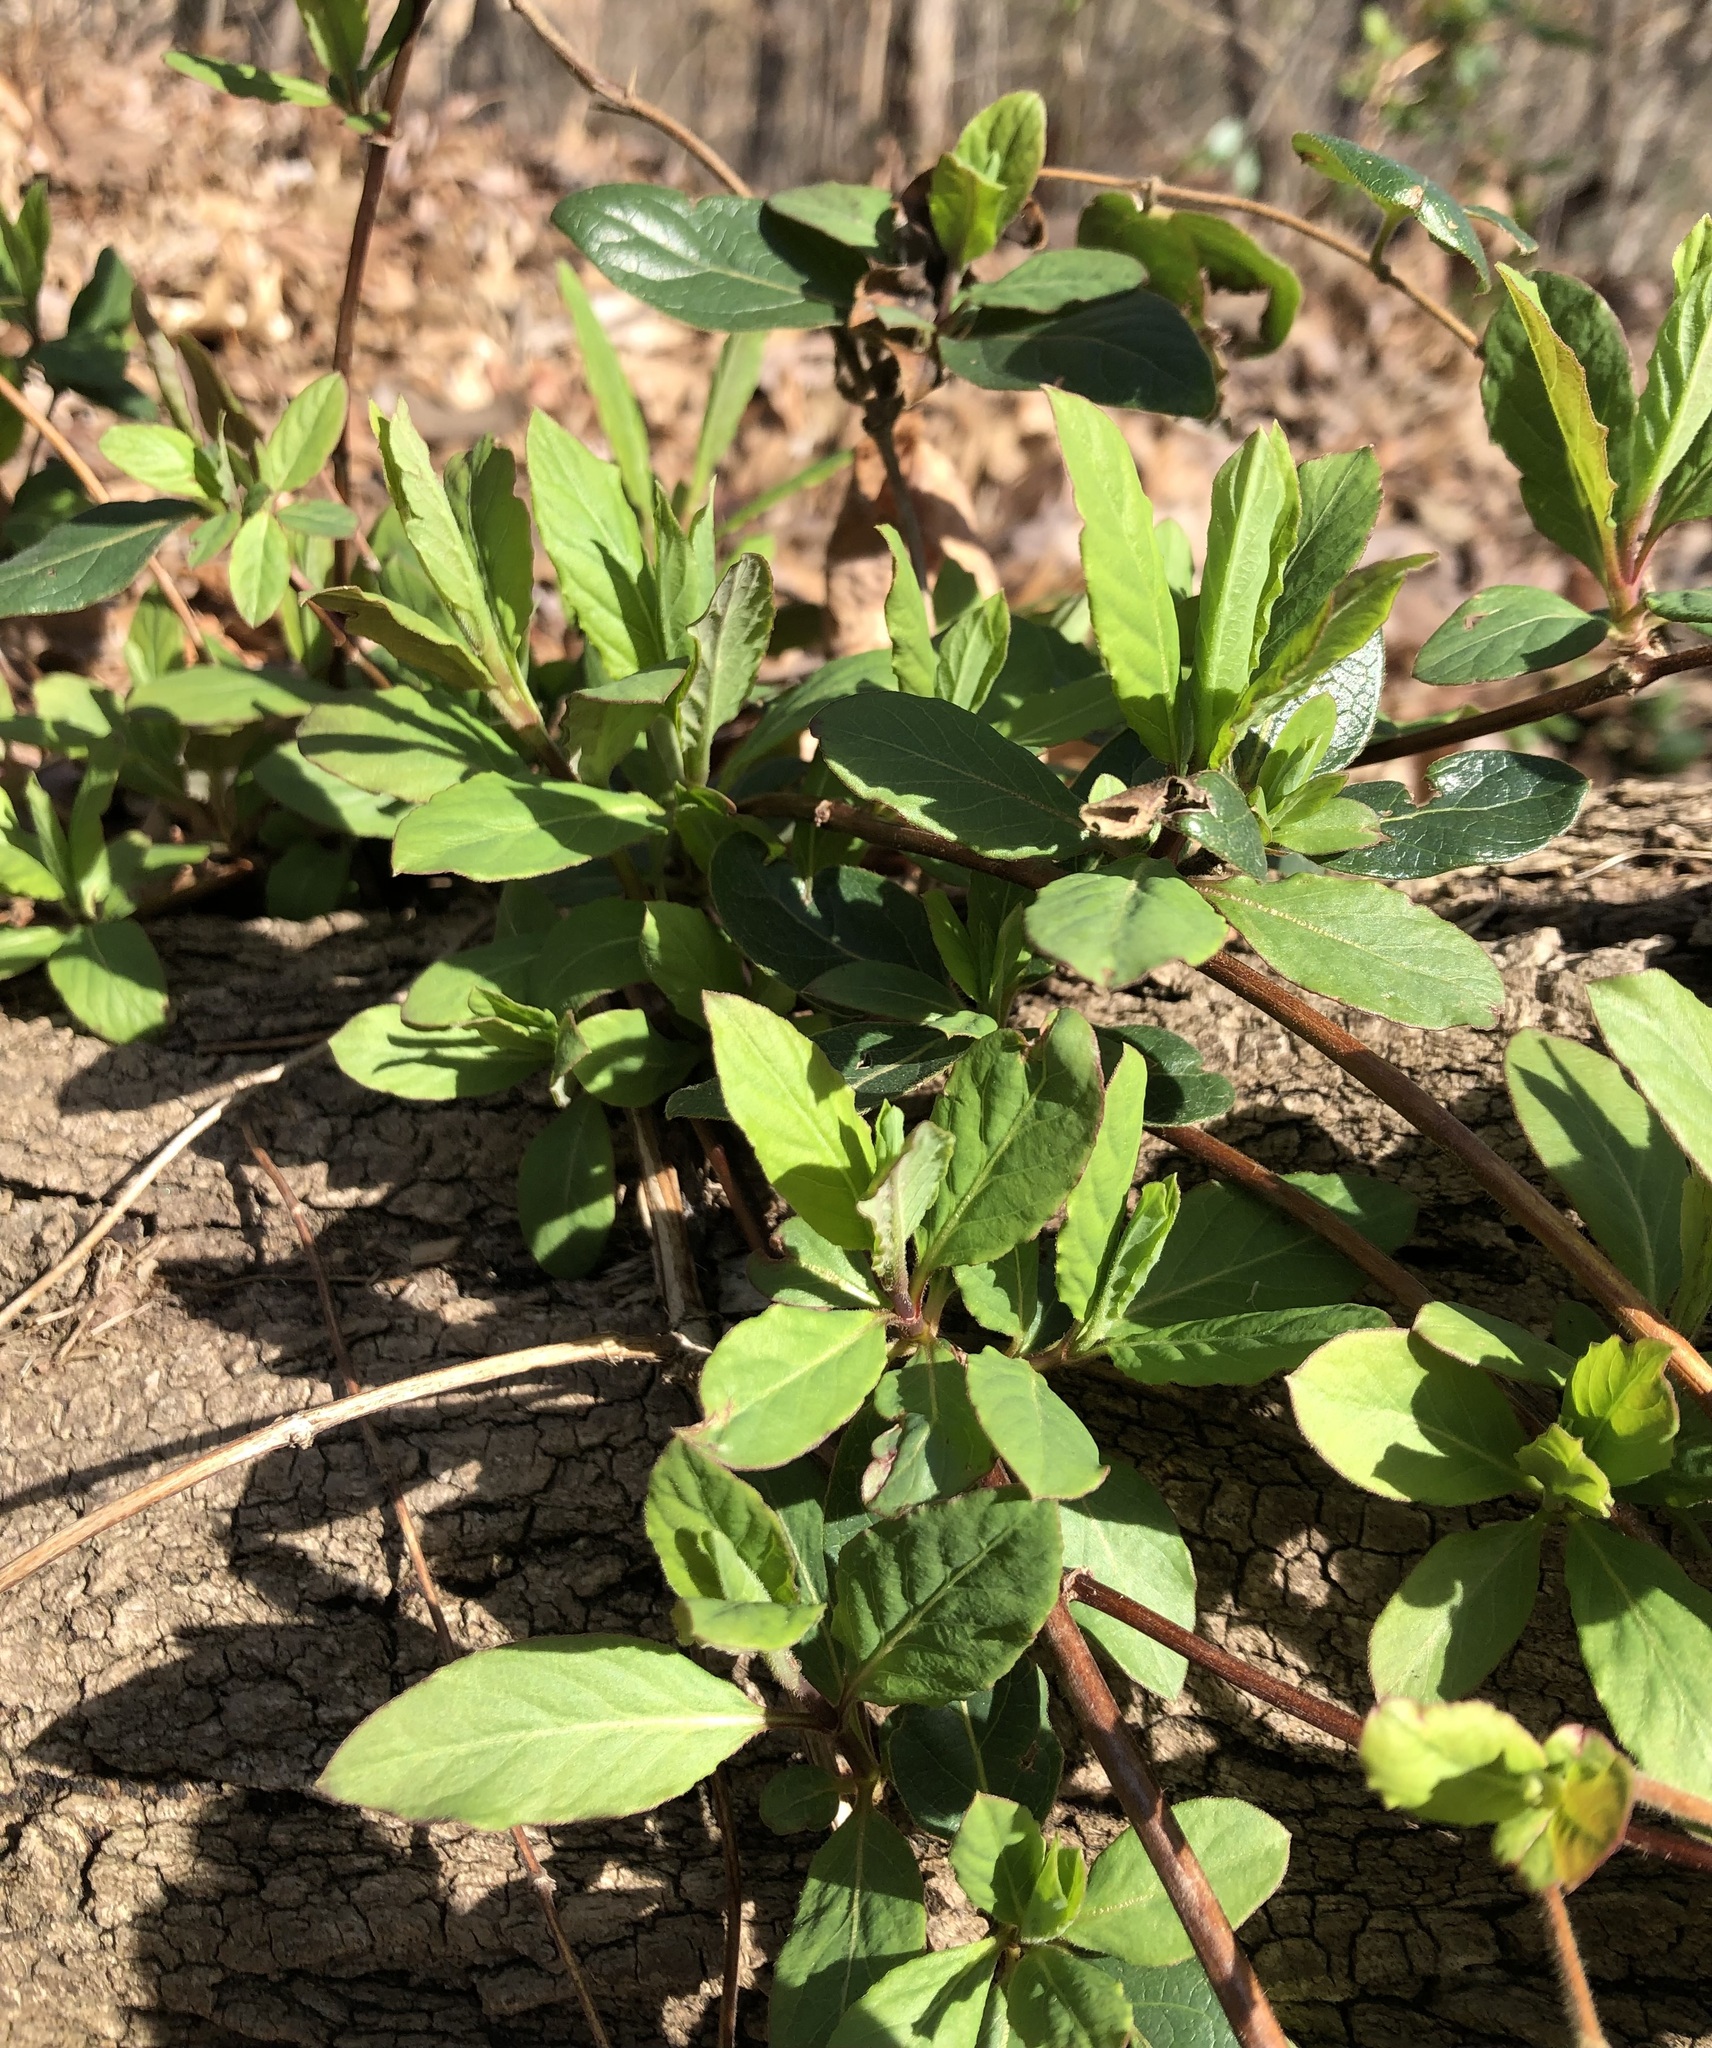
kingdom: Plantae
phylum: Tracheophyta
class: Magnoliopsida
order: Dipsacales
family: Caprifoliaceae
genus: Lonicera
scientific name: Lonicera japonica
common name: Japanese honeysuckle
